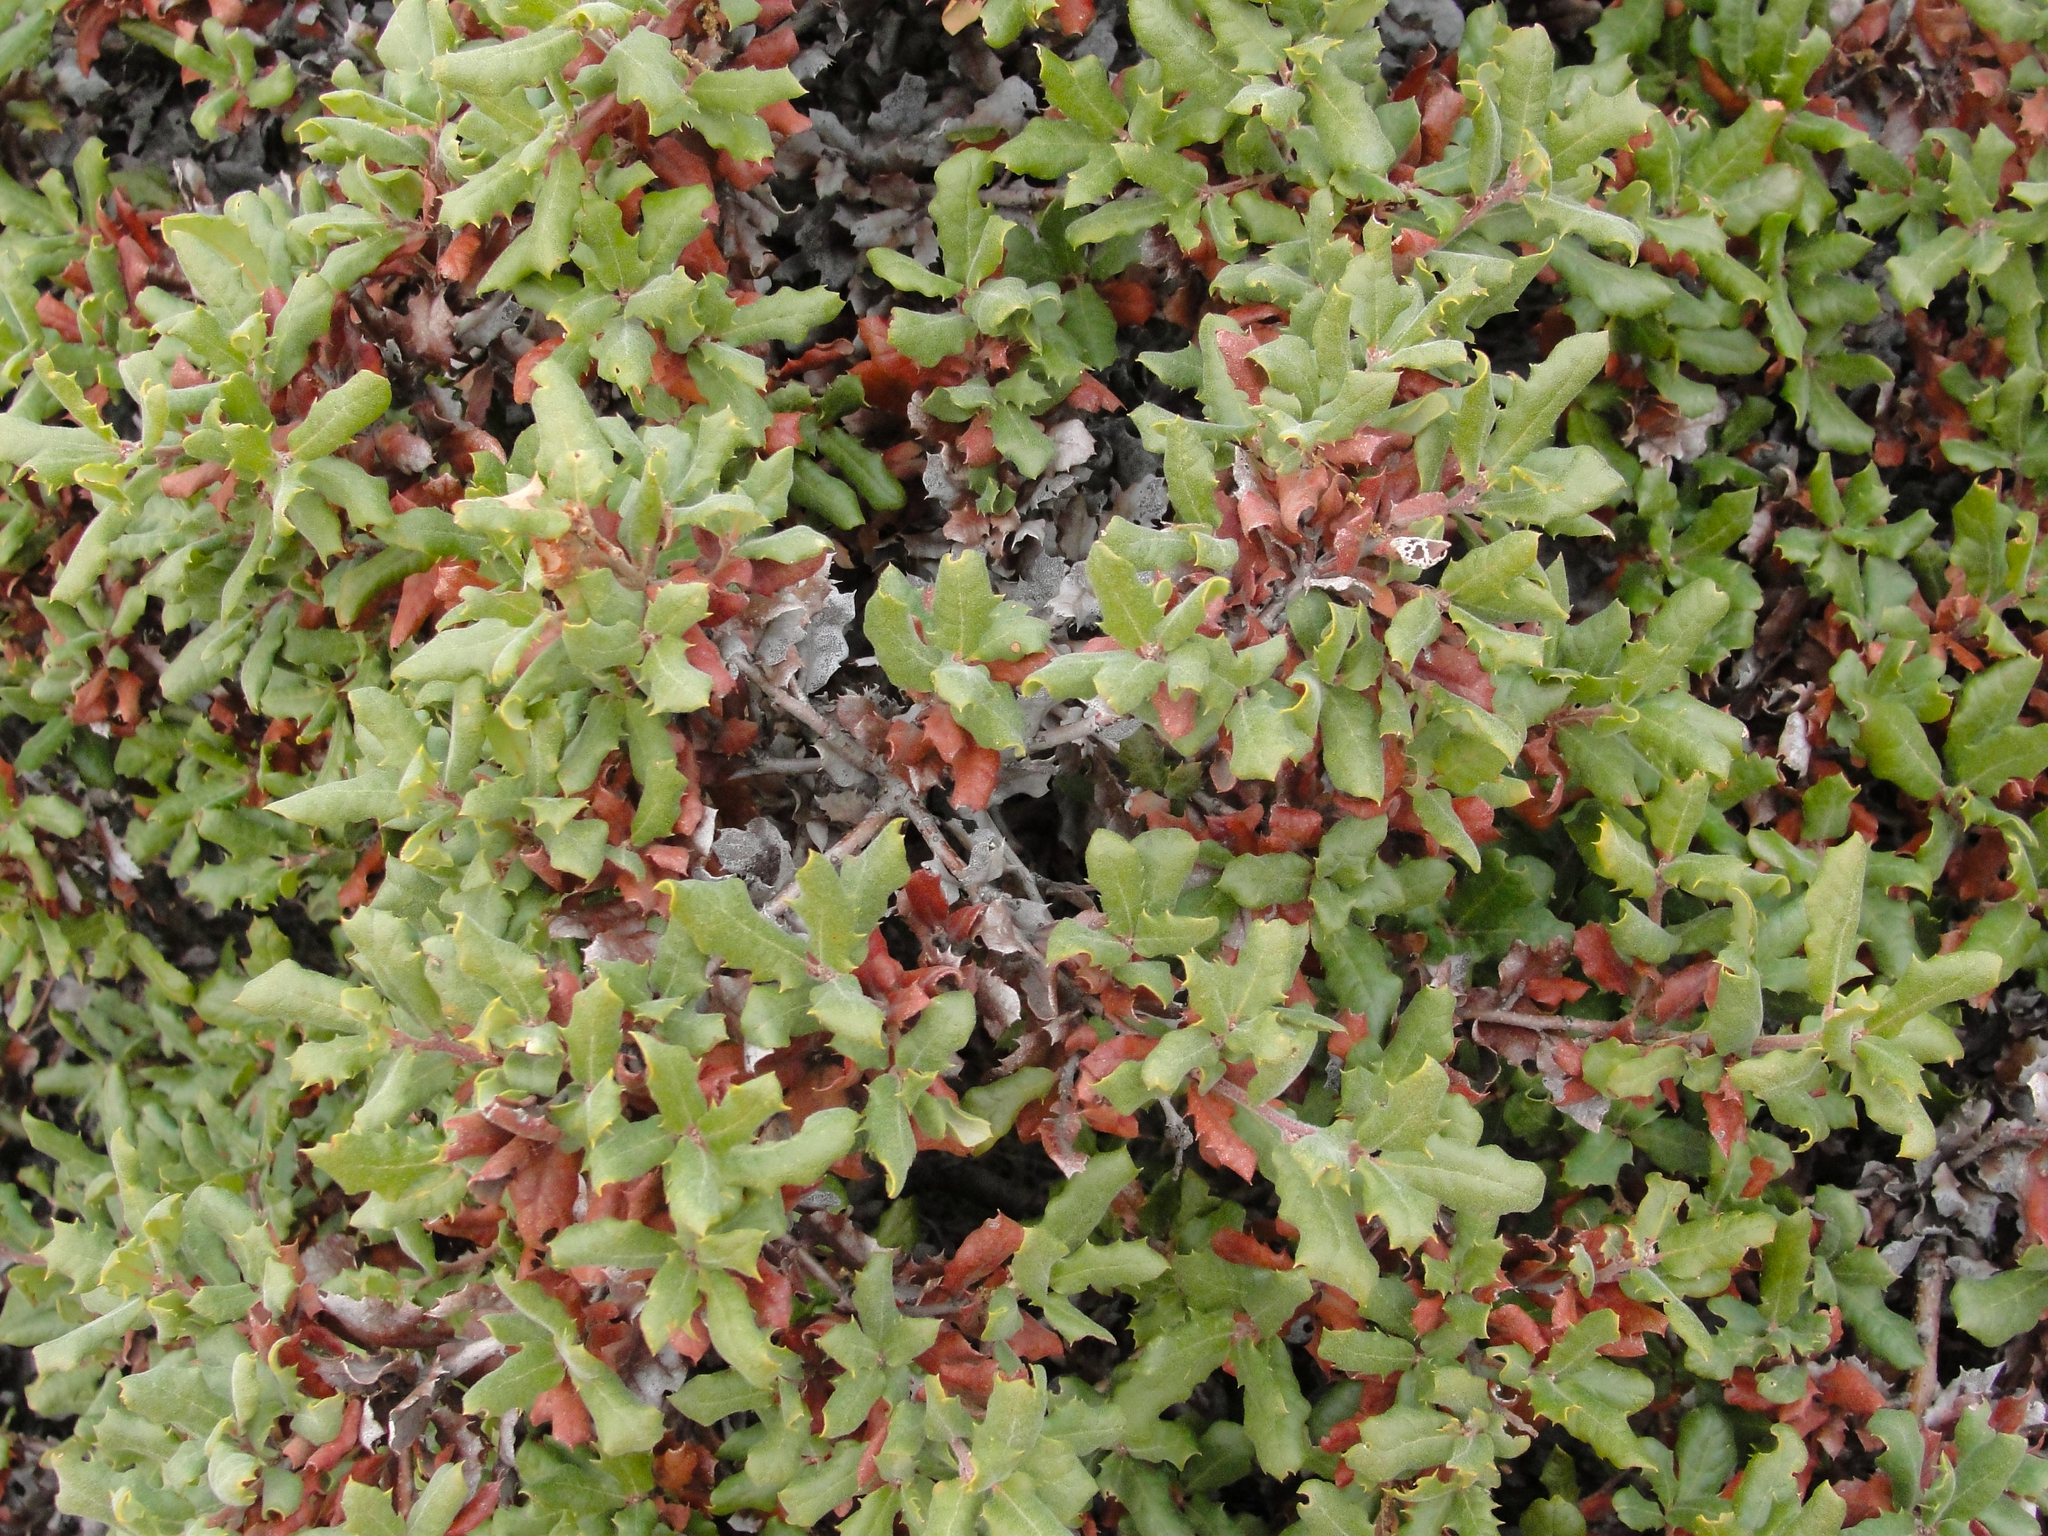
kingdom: Plantae
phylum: Tracheophyta
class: Magnoliopsida
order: Fagales
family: Fagaceae
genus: Quercus
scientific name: Quercus durata
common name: Leather oak
